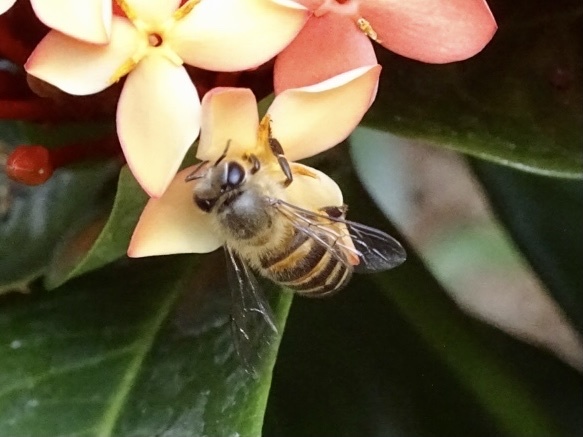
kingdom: Animalia
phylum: Arthropoda
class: Insecta
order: Hymenoptera
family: Apidae
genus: Apis
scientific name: Apis cerana
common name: Honey bee
